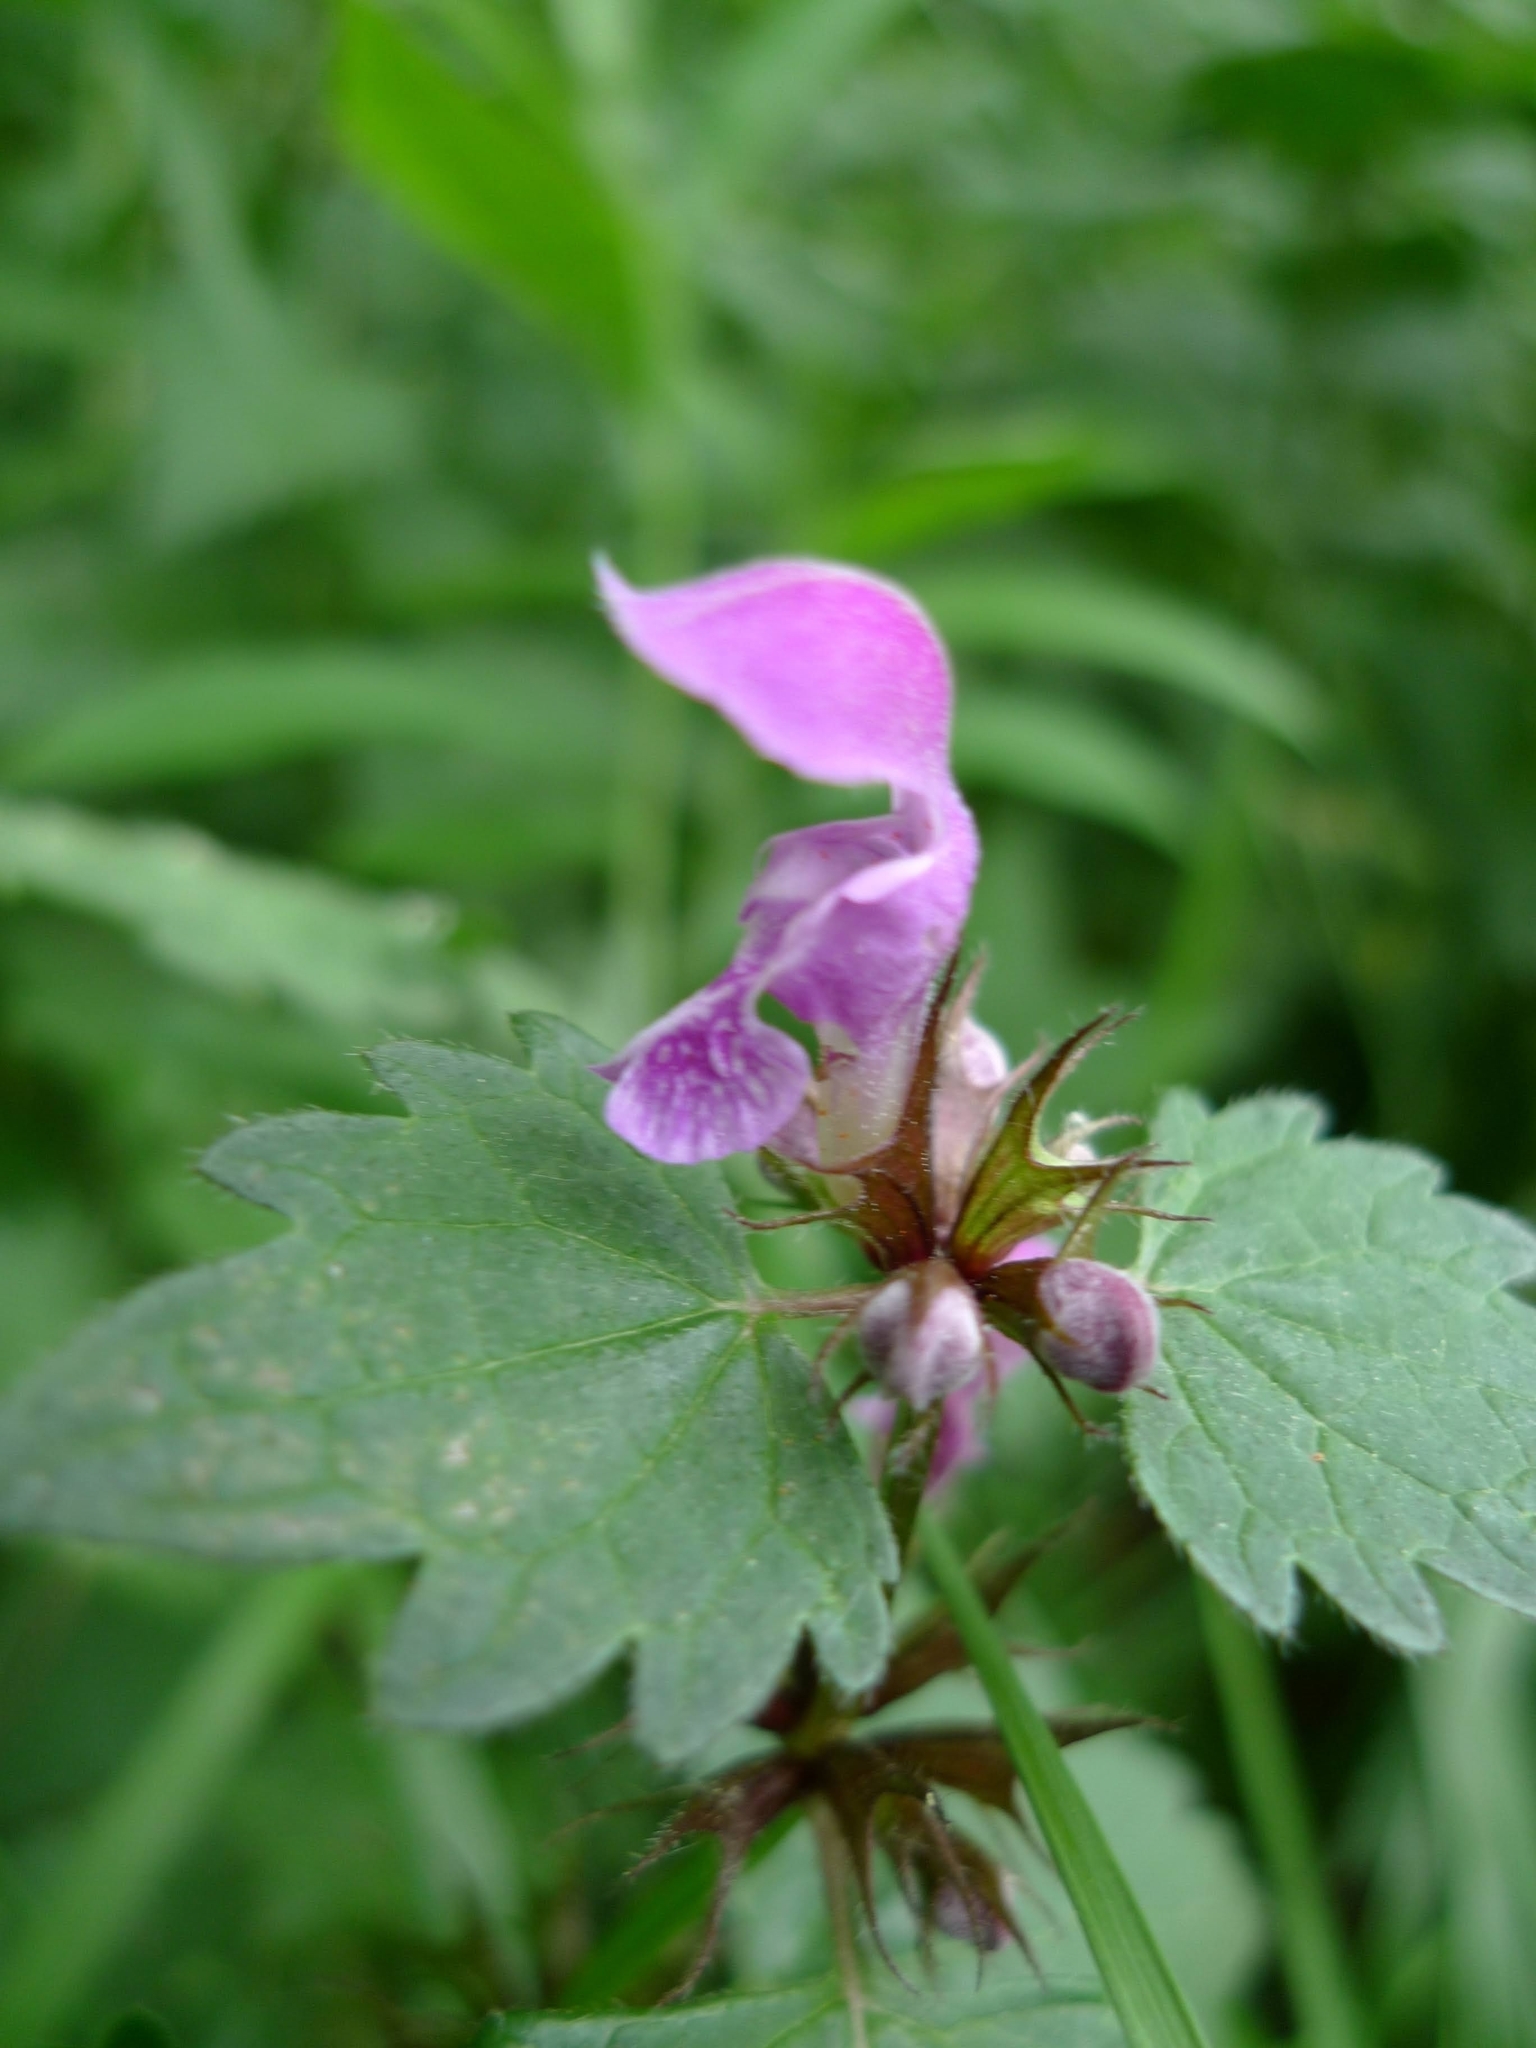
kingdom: Plantae
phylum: Tracheophyta
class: Magnoliopsida
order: Lamiales
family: Lamiaceae
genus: Lamium
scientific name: Lamium maculatum
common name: Spotted dead-nettle
